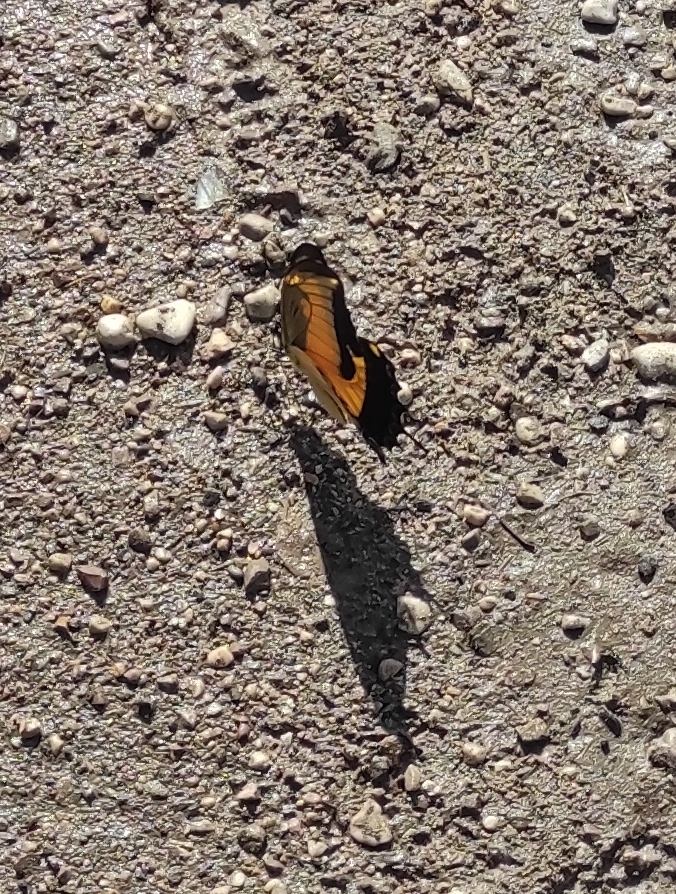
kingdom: Animalia
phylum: Arthropoda
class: Insecta
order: Lepidoptera
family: Papilionidae
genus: Papilio
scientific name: Papilio androgeus
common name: Androgeus swallowtail
